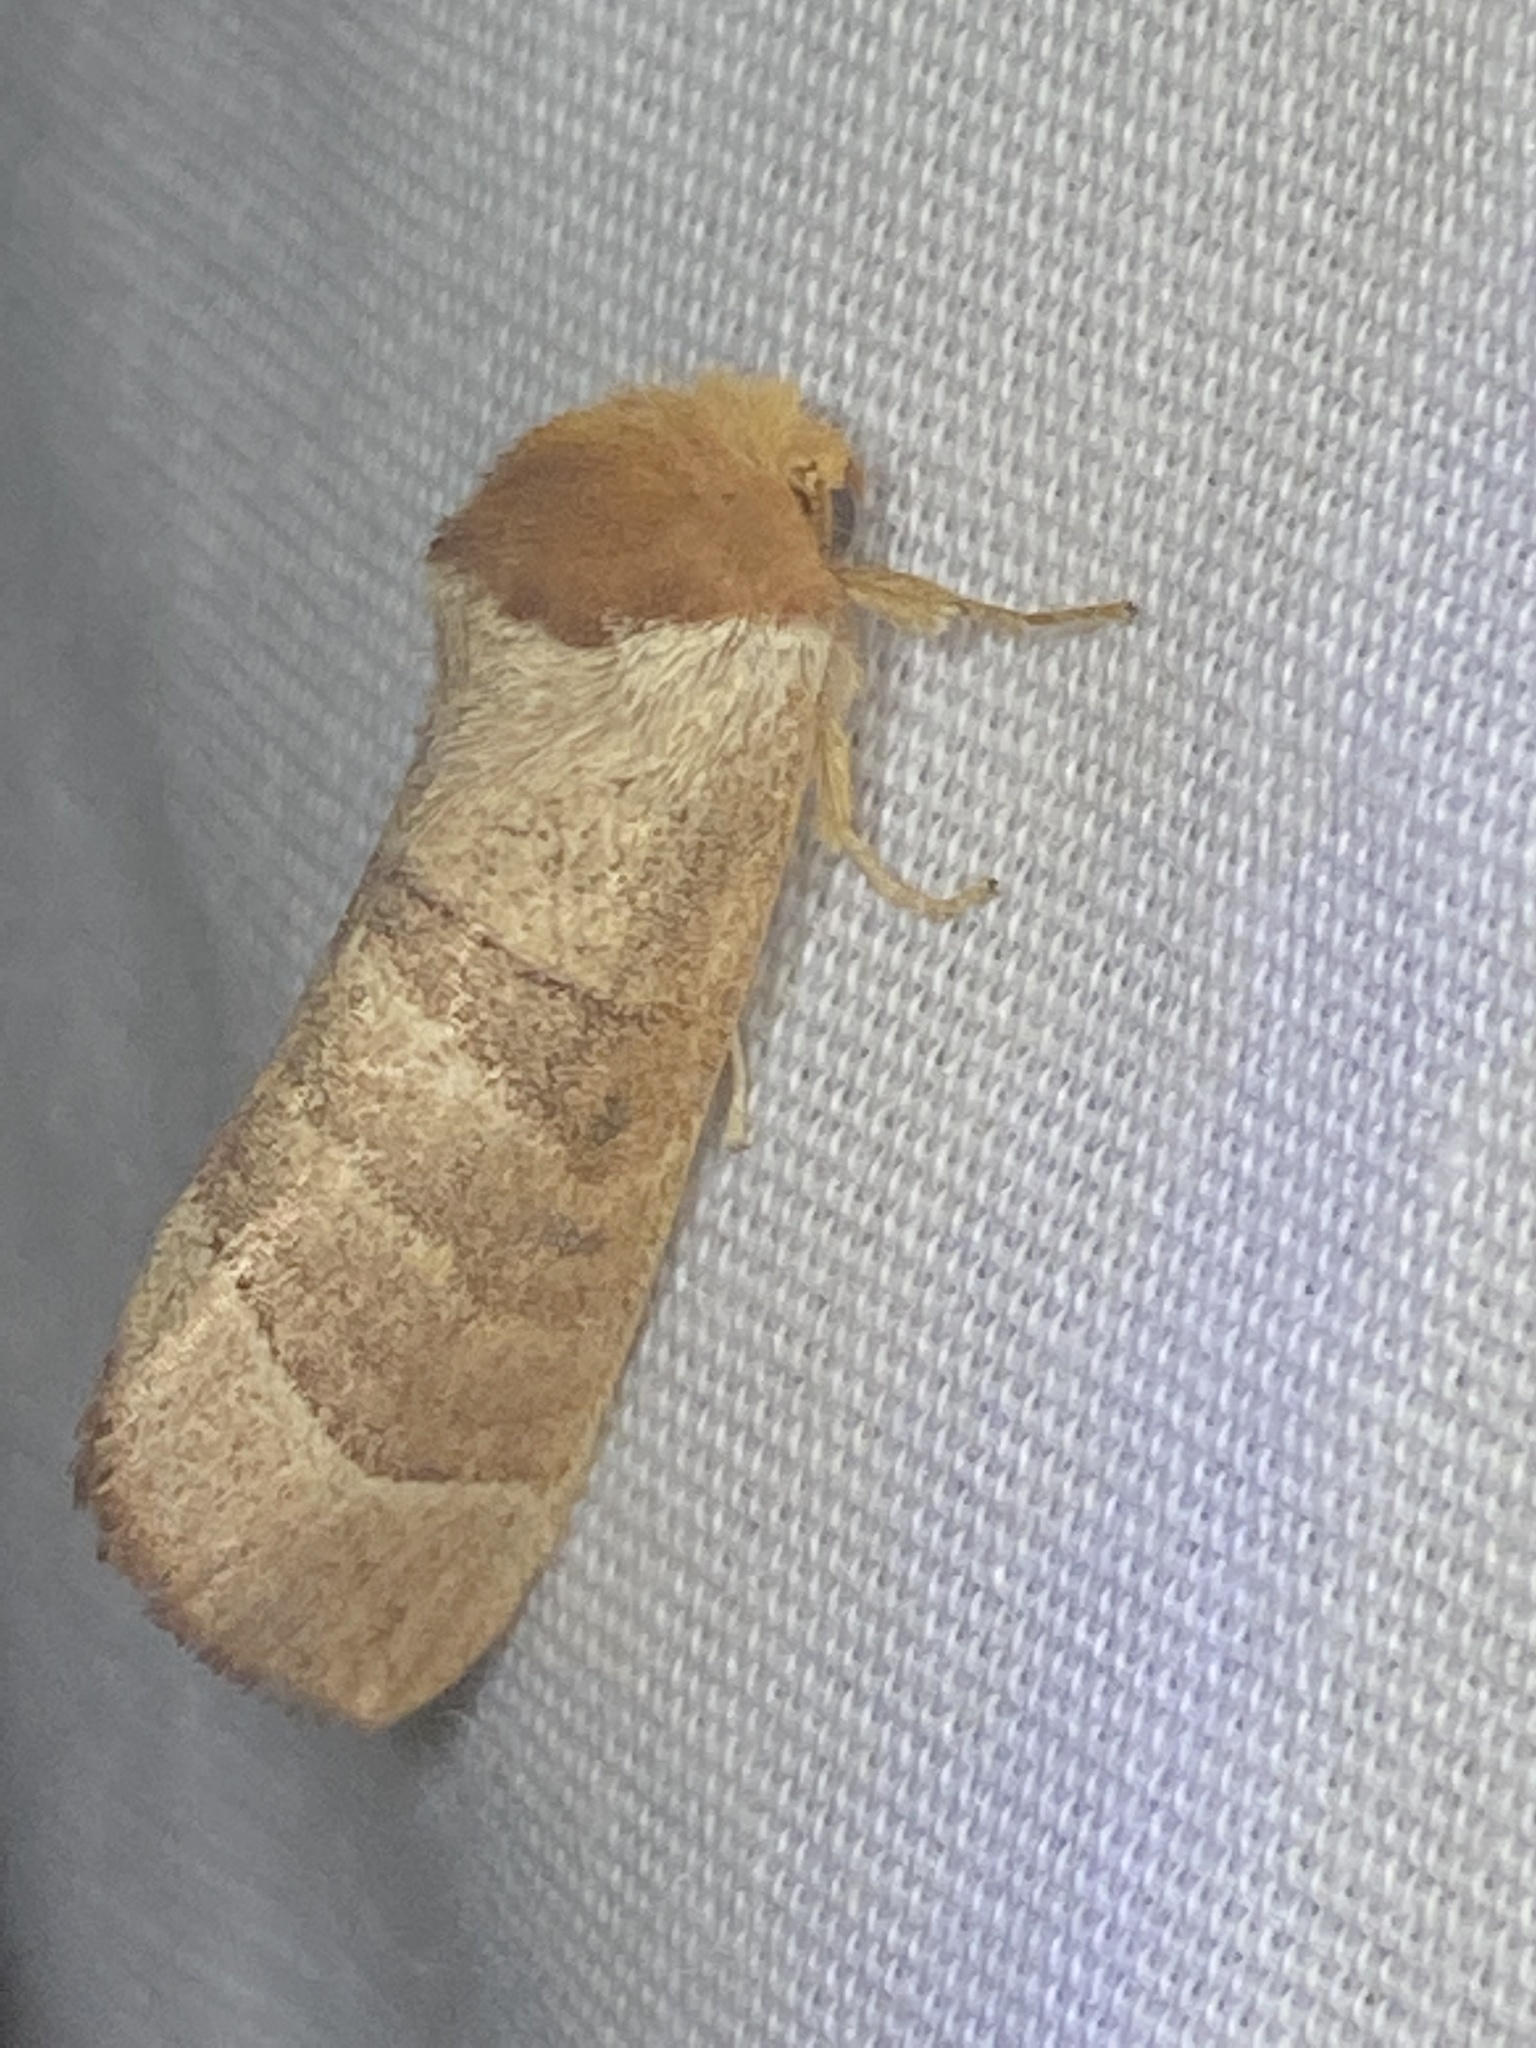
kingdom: Animalia
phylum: Arthropoda
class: Insecta
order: Lepidoptera
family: Notodontidae
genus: Datana
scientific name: Datana integerrima
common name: Walnut caterpillar
